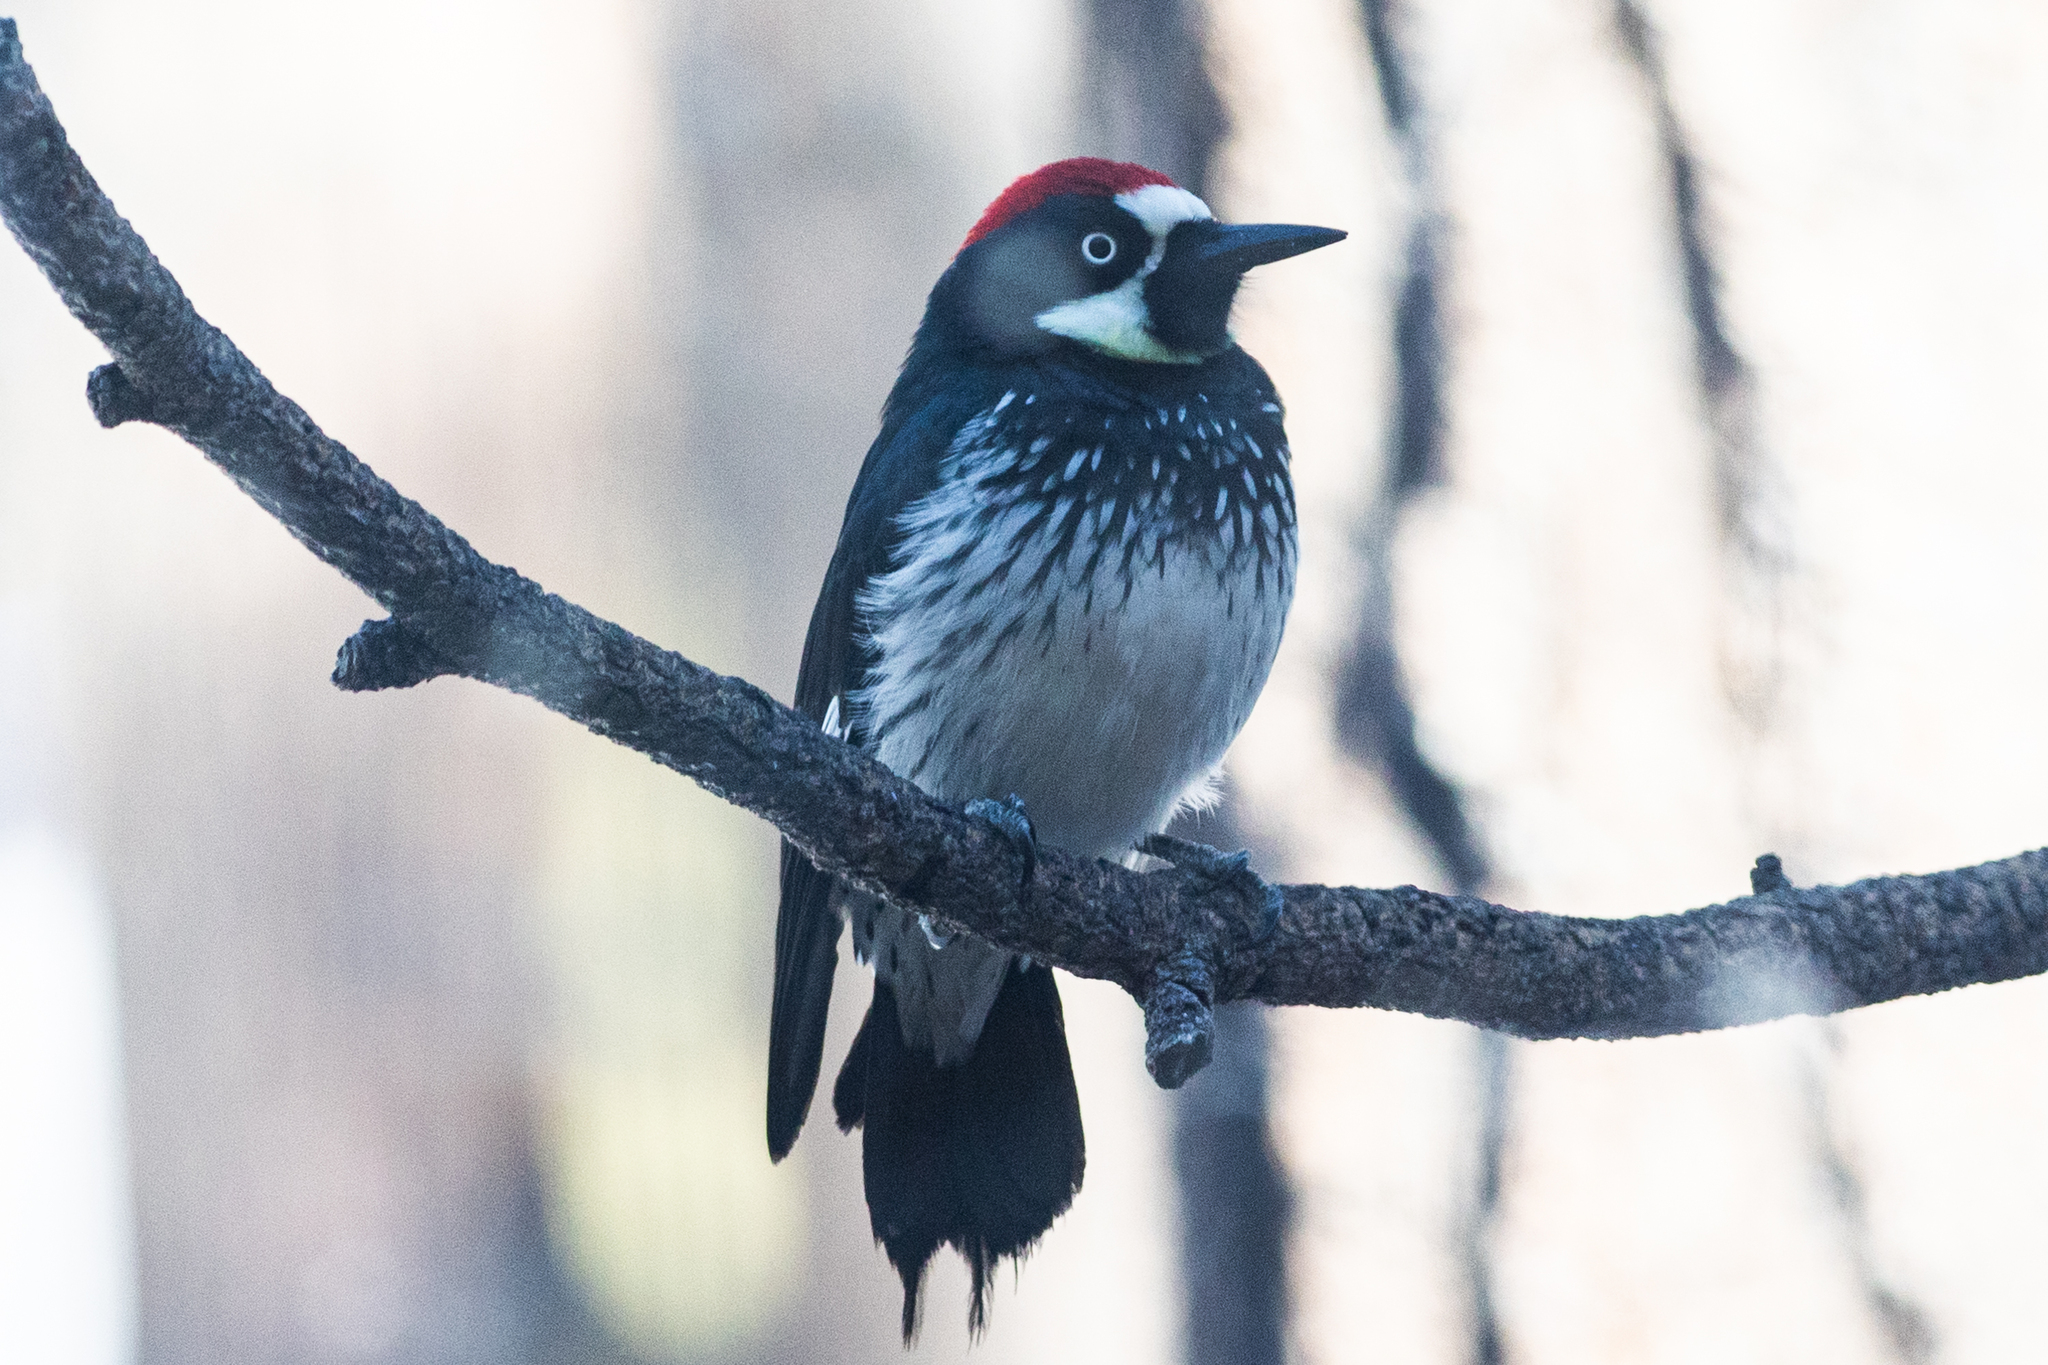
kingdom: Animalia
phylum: Chordata
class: Aves
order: Piciformes
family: Picidae
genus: Melanerpes
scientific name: Melanerpes formicivorus
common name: Acorn woodpecker
